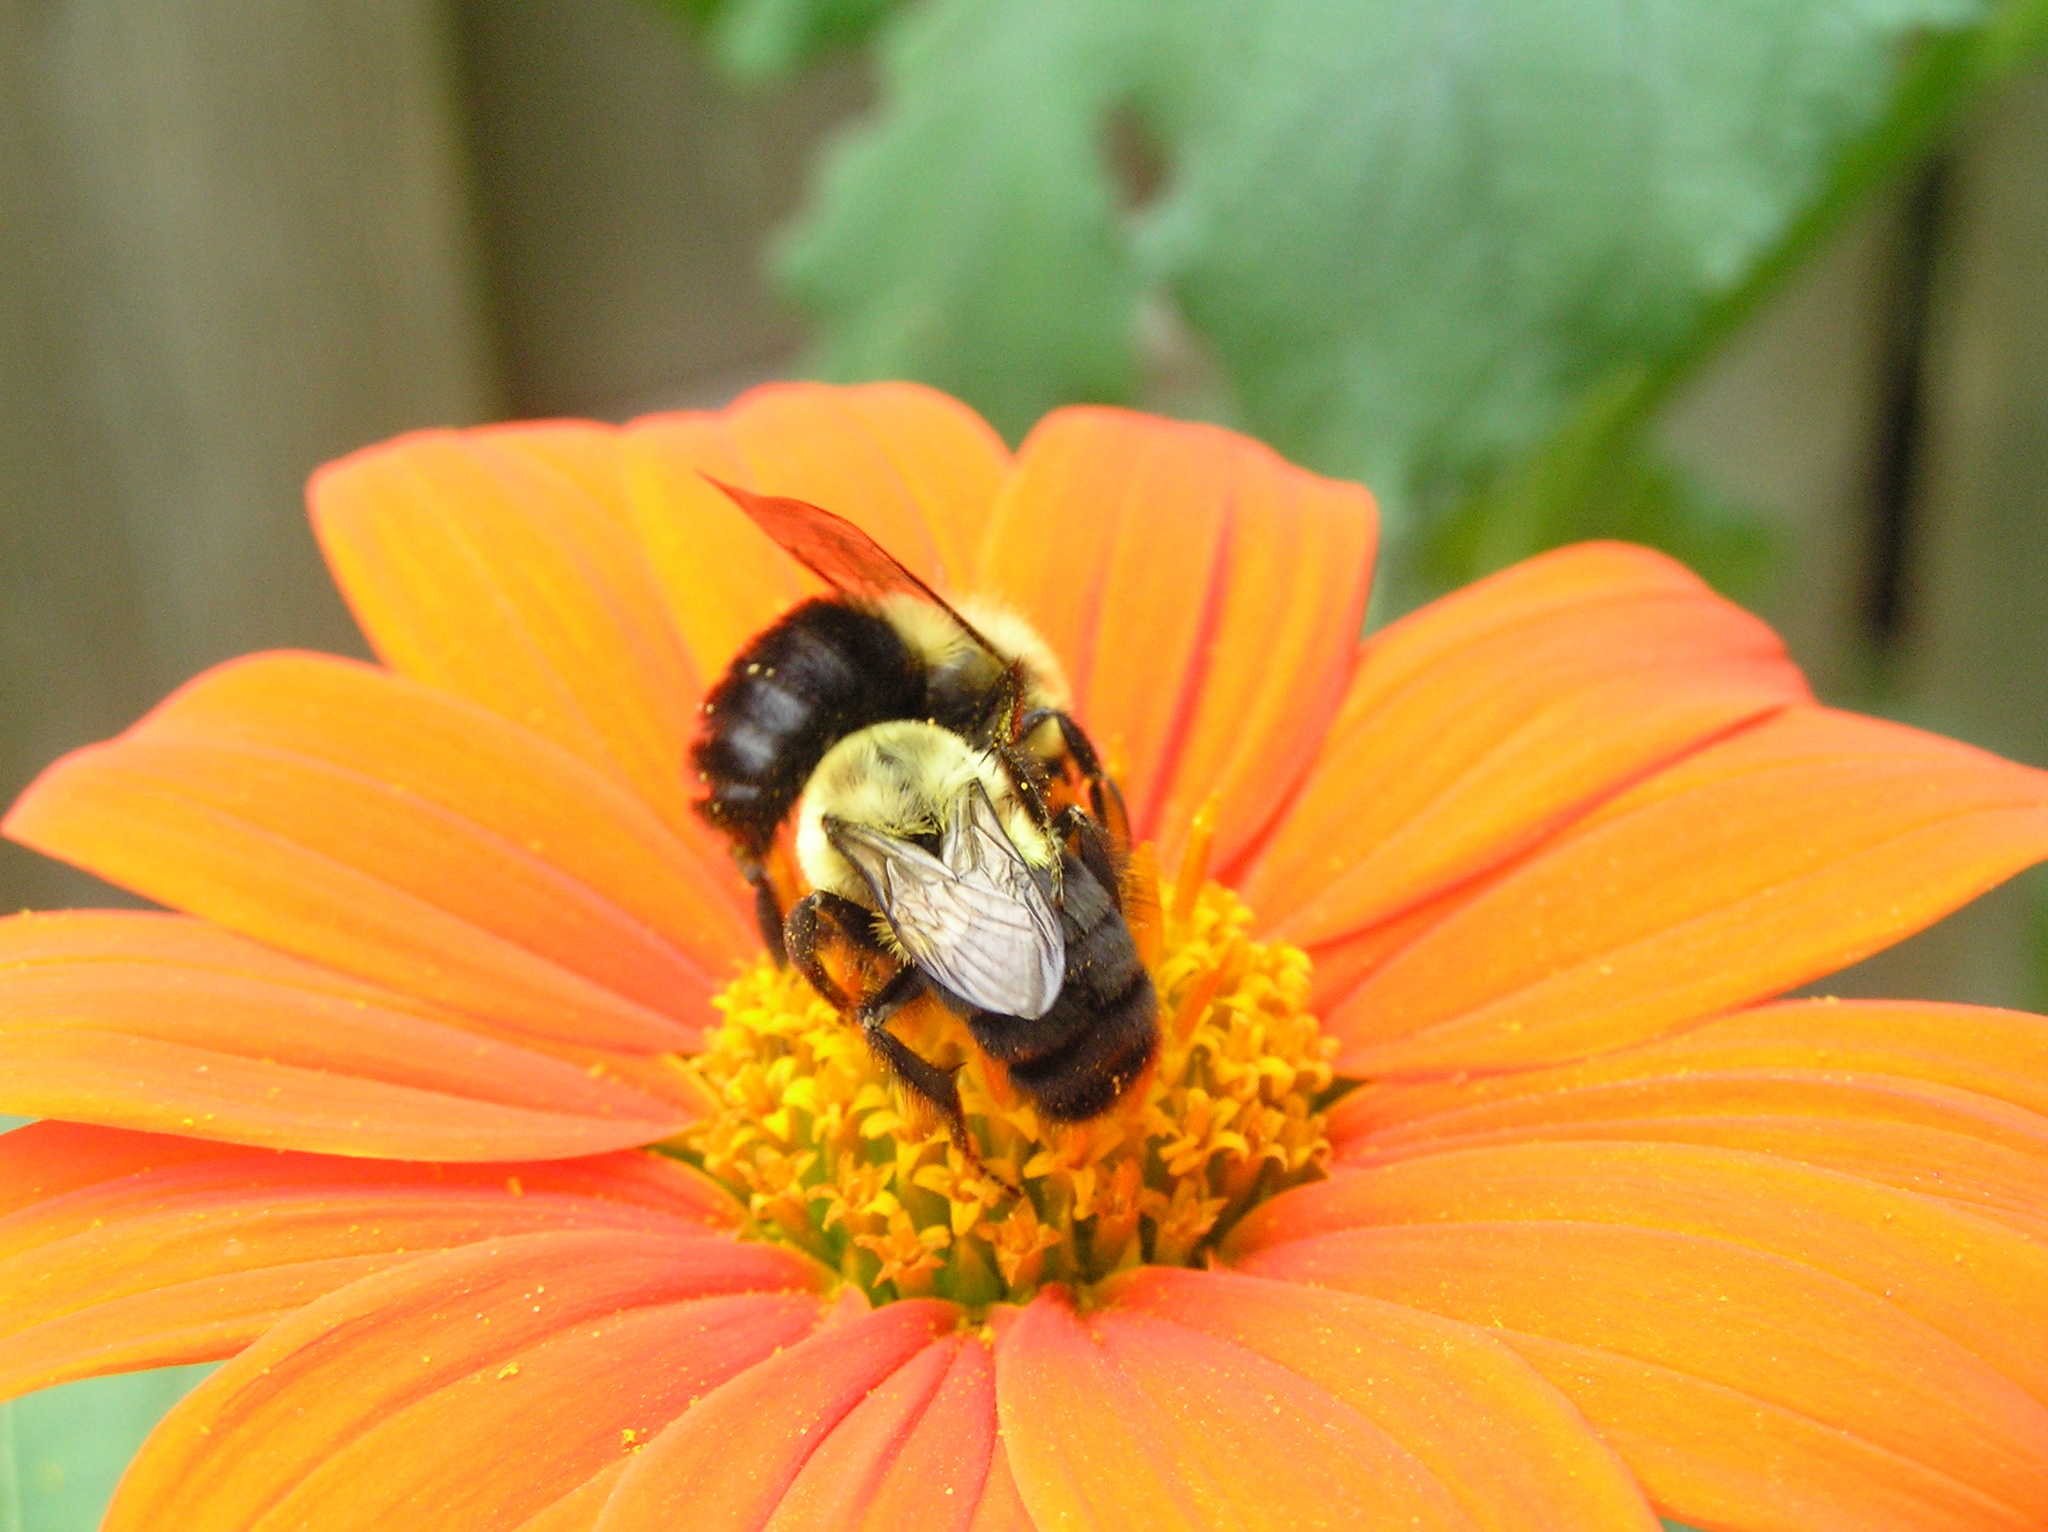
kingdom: Animalia
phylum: Arthropoda
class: Insecta
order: Hymenoptera
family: Apidae
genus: Bombus
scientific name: Bombus impatiens
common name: Common eastern bumble bee
